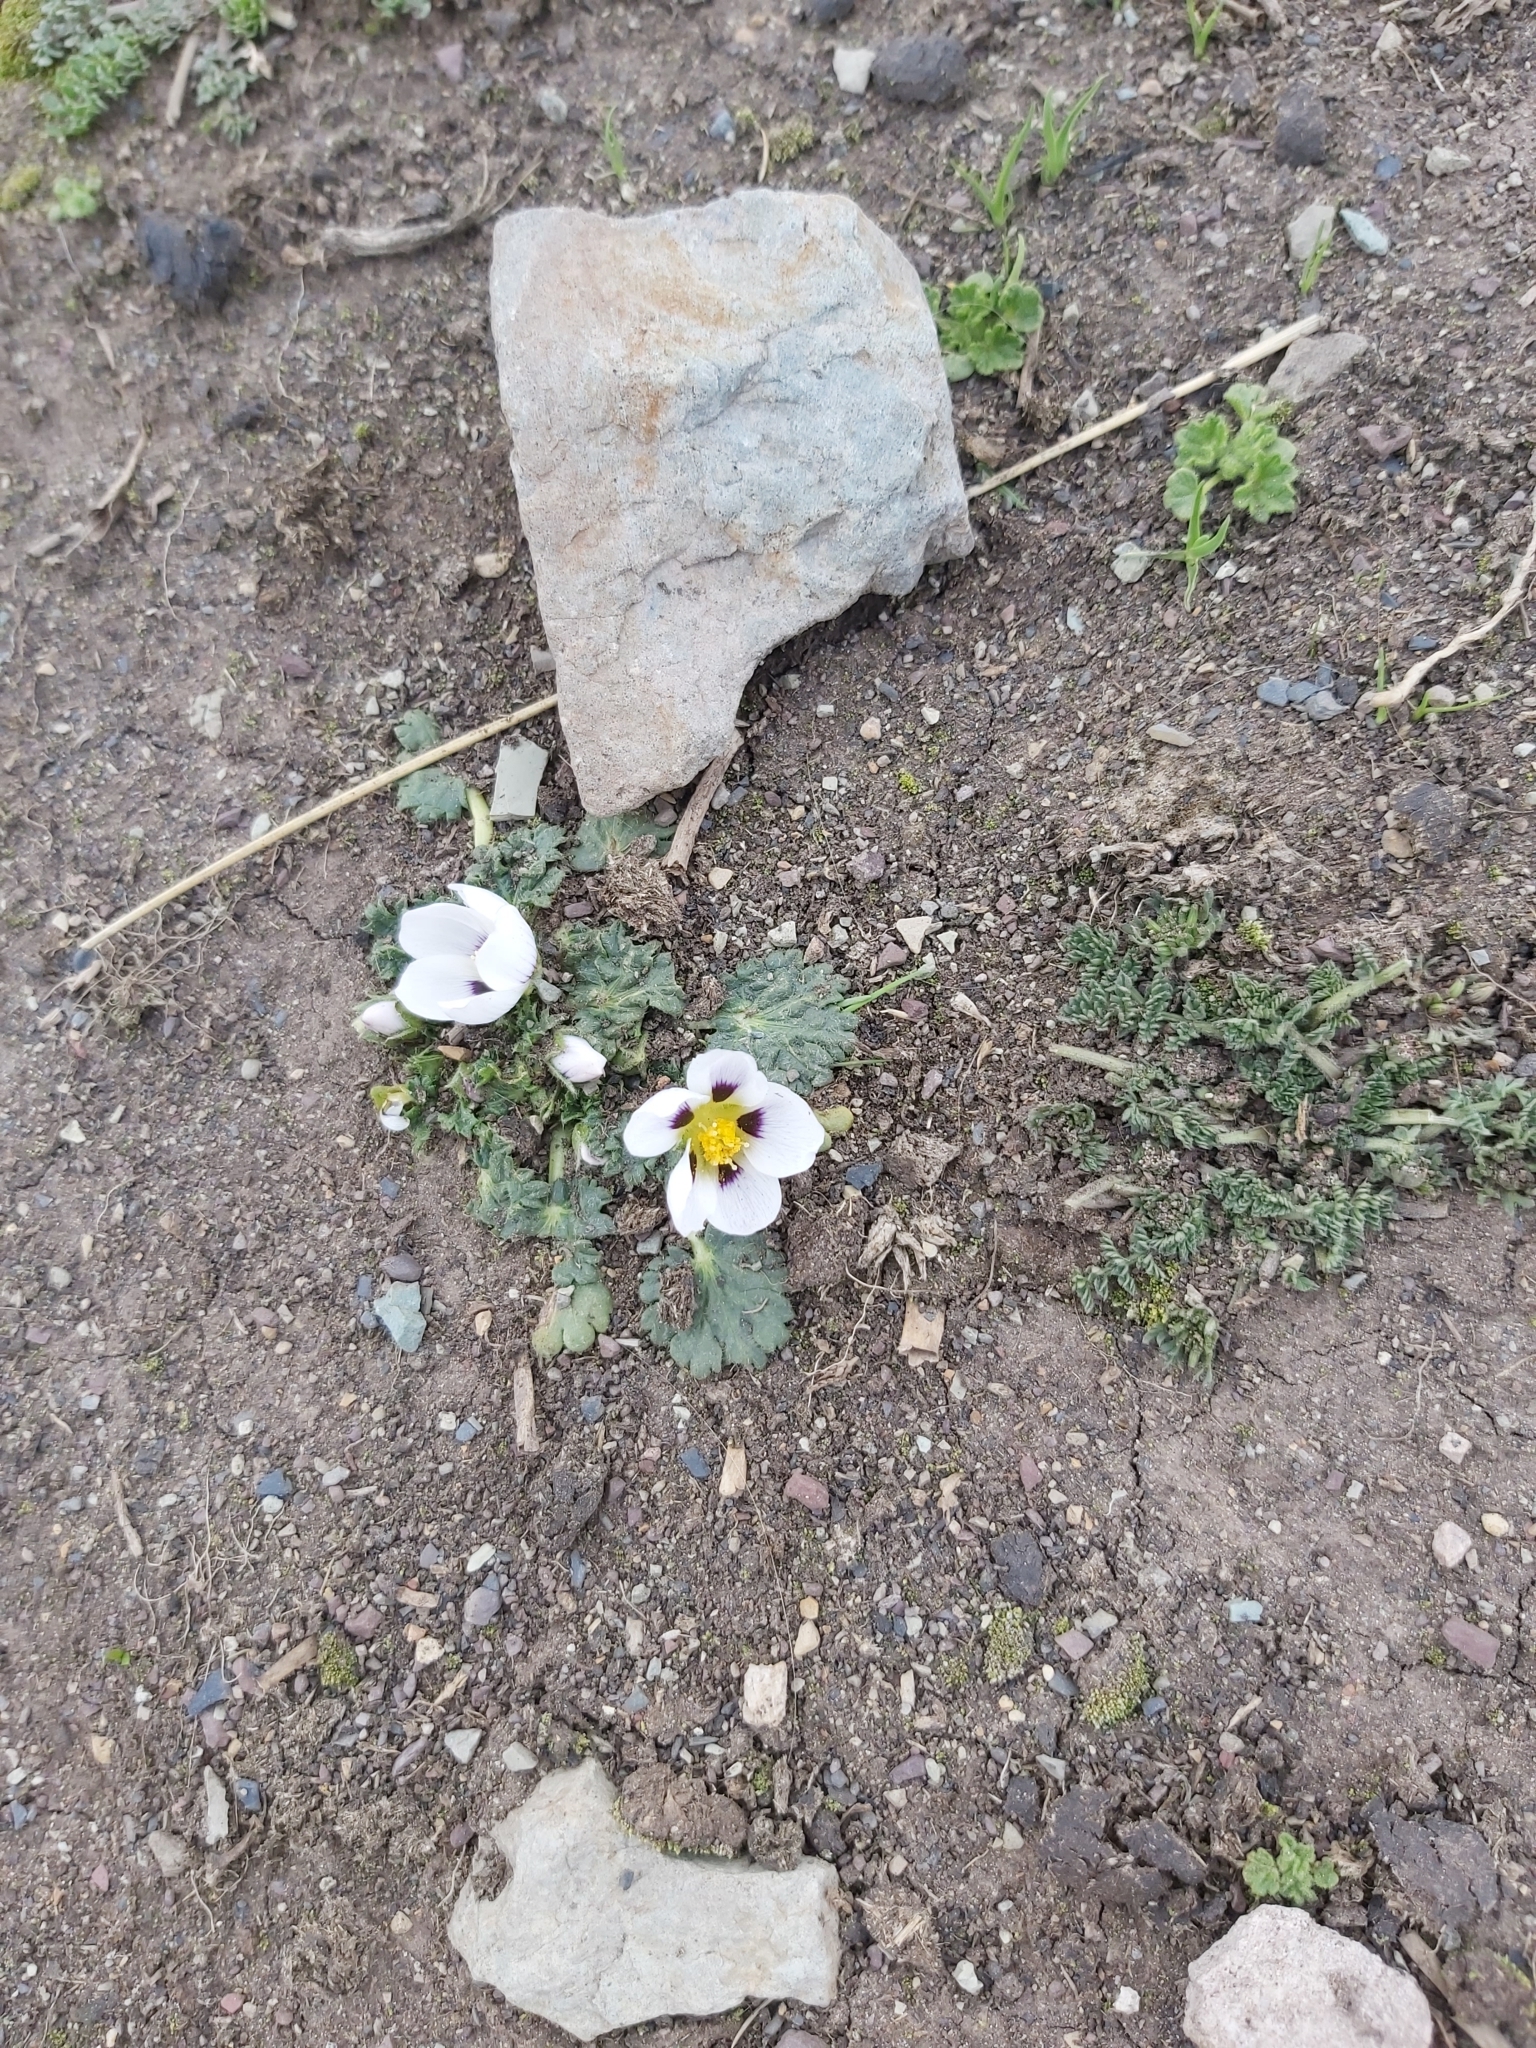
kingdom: Plantae
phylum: Tracheophyta
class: Magnoliopsida
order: Malvales
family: Malvaceae
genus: Acaulimalva
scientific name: Acaulimalva nubigena
